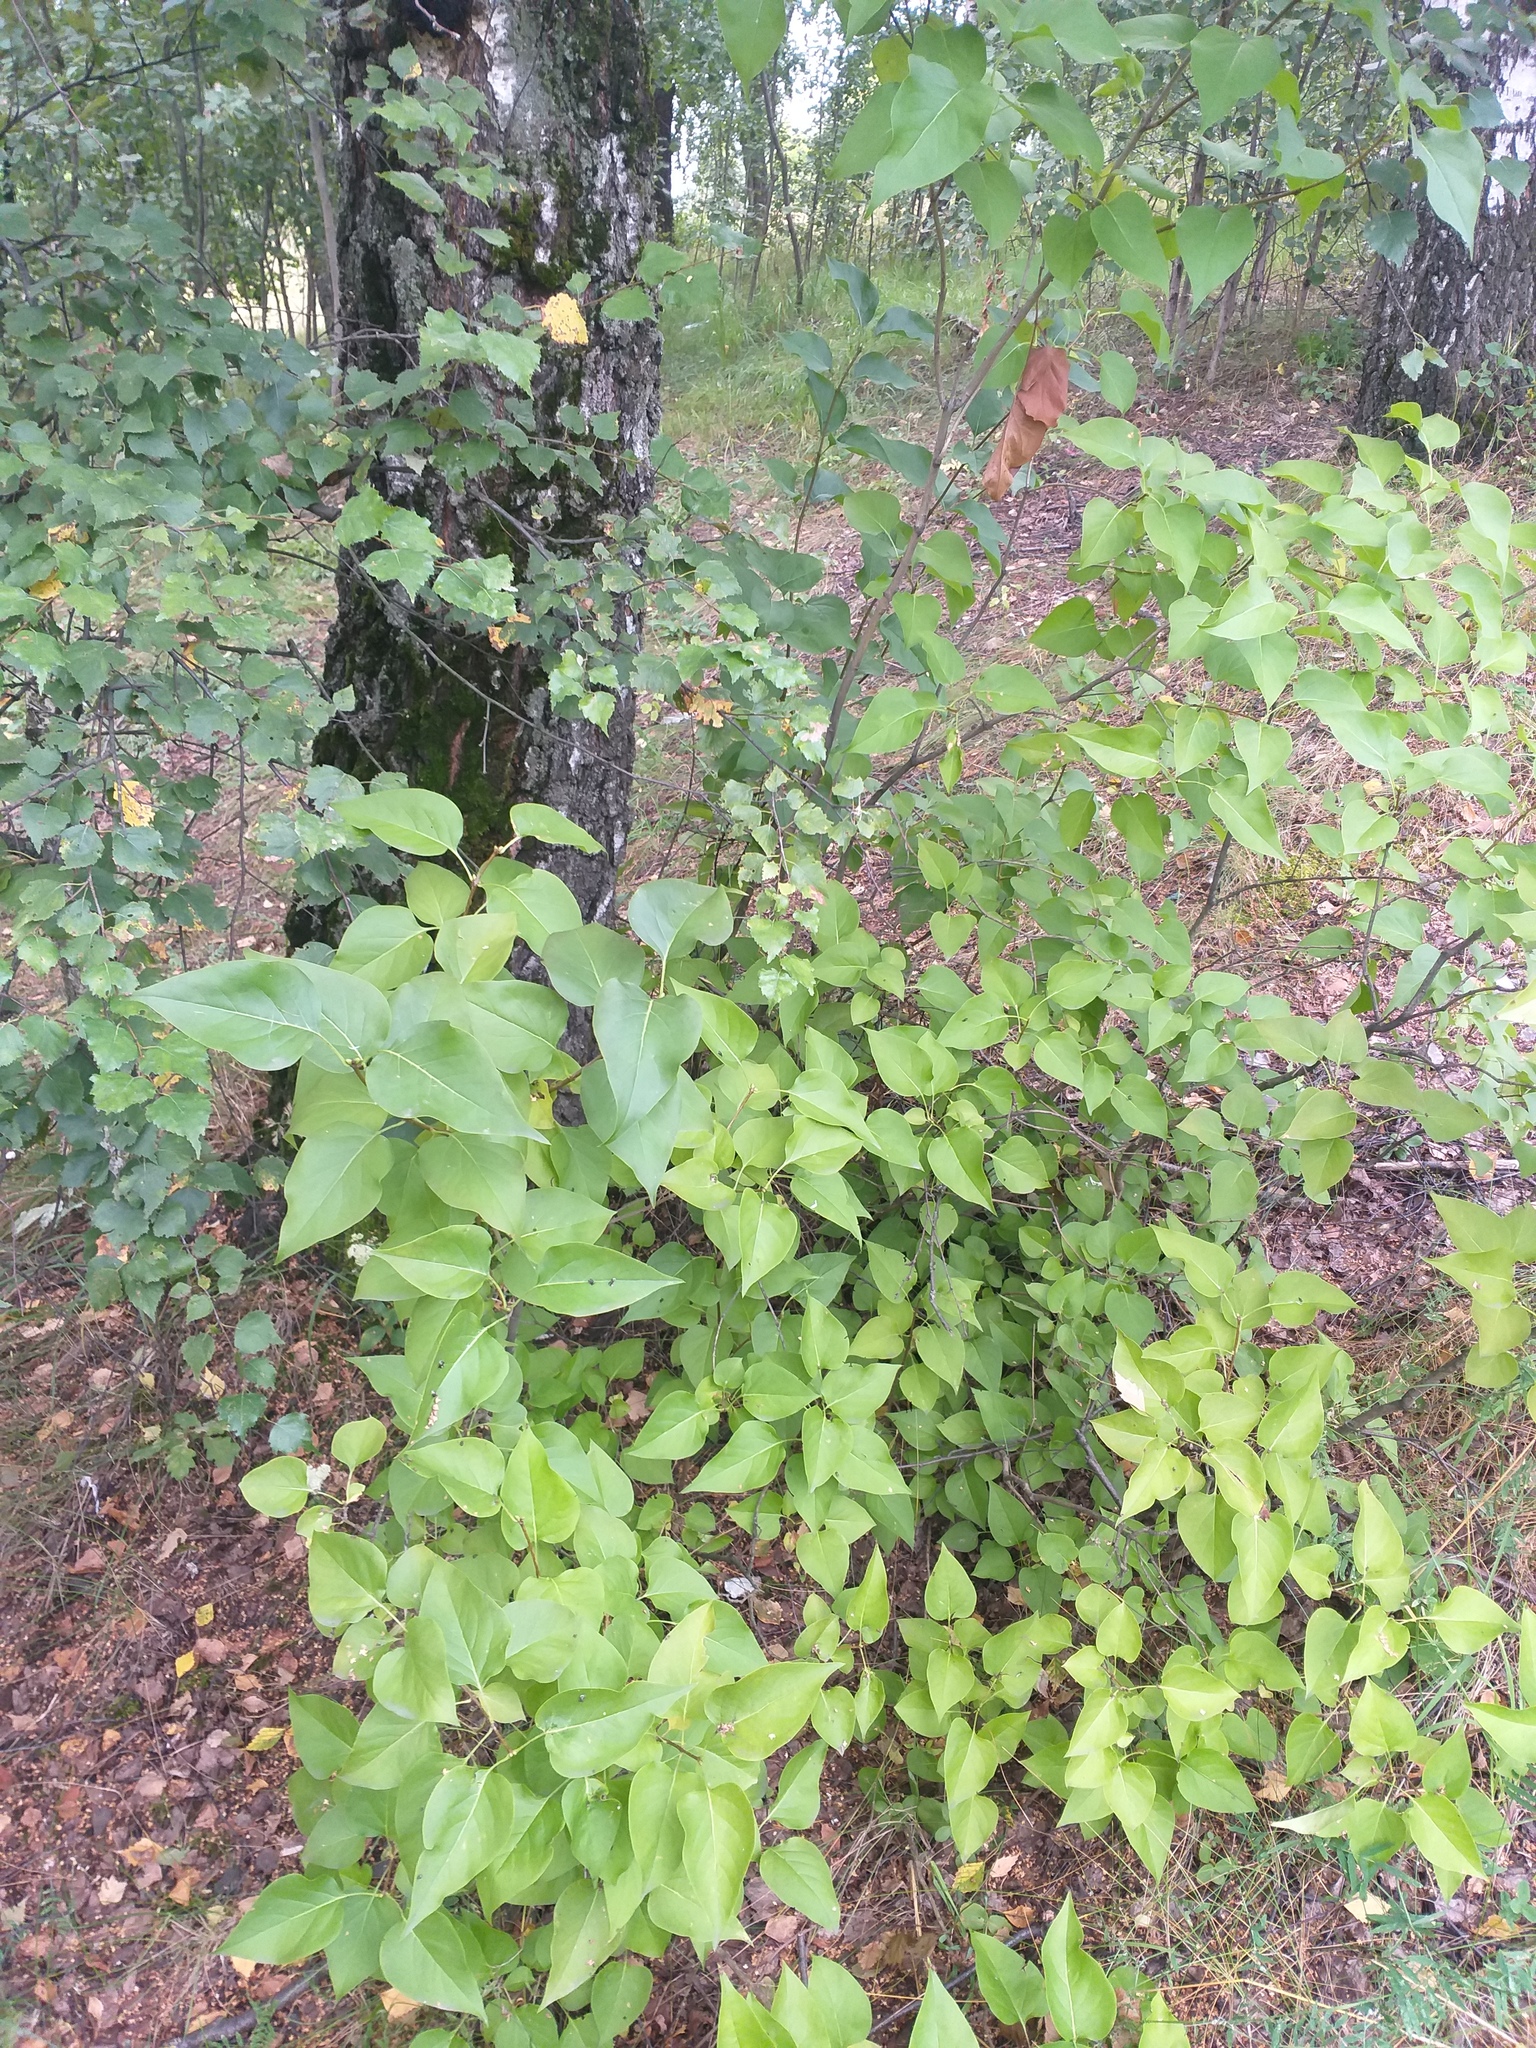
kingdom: Plantae
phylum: Tracheophyta
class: Magnoliopsida
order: Lamiales
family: Oleaceae
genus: Syringa
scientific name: Syringa vulgaris
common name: Common lilac
